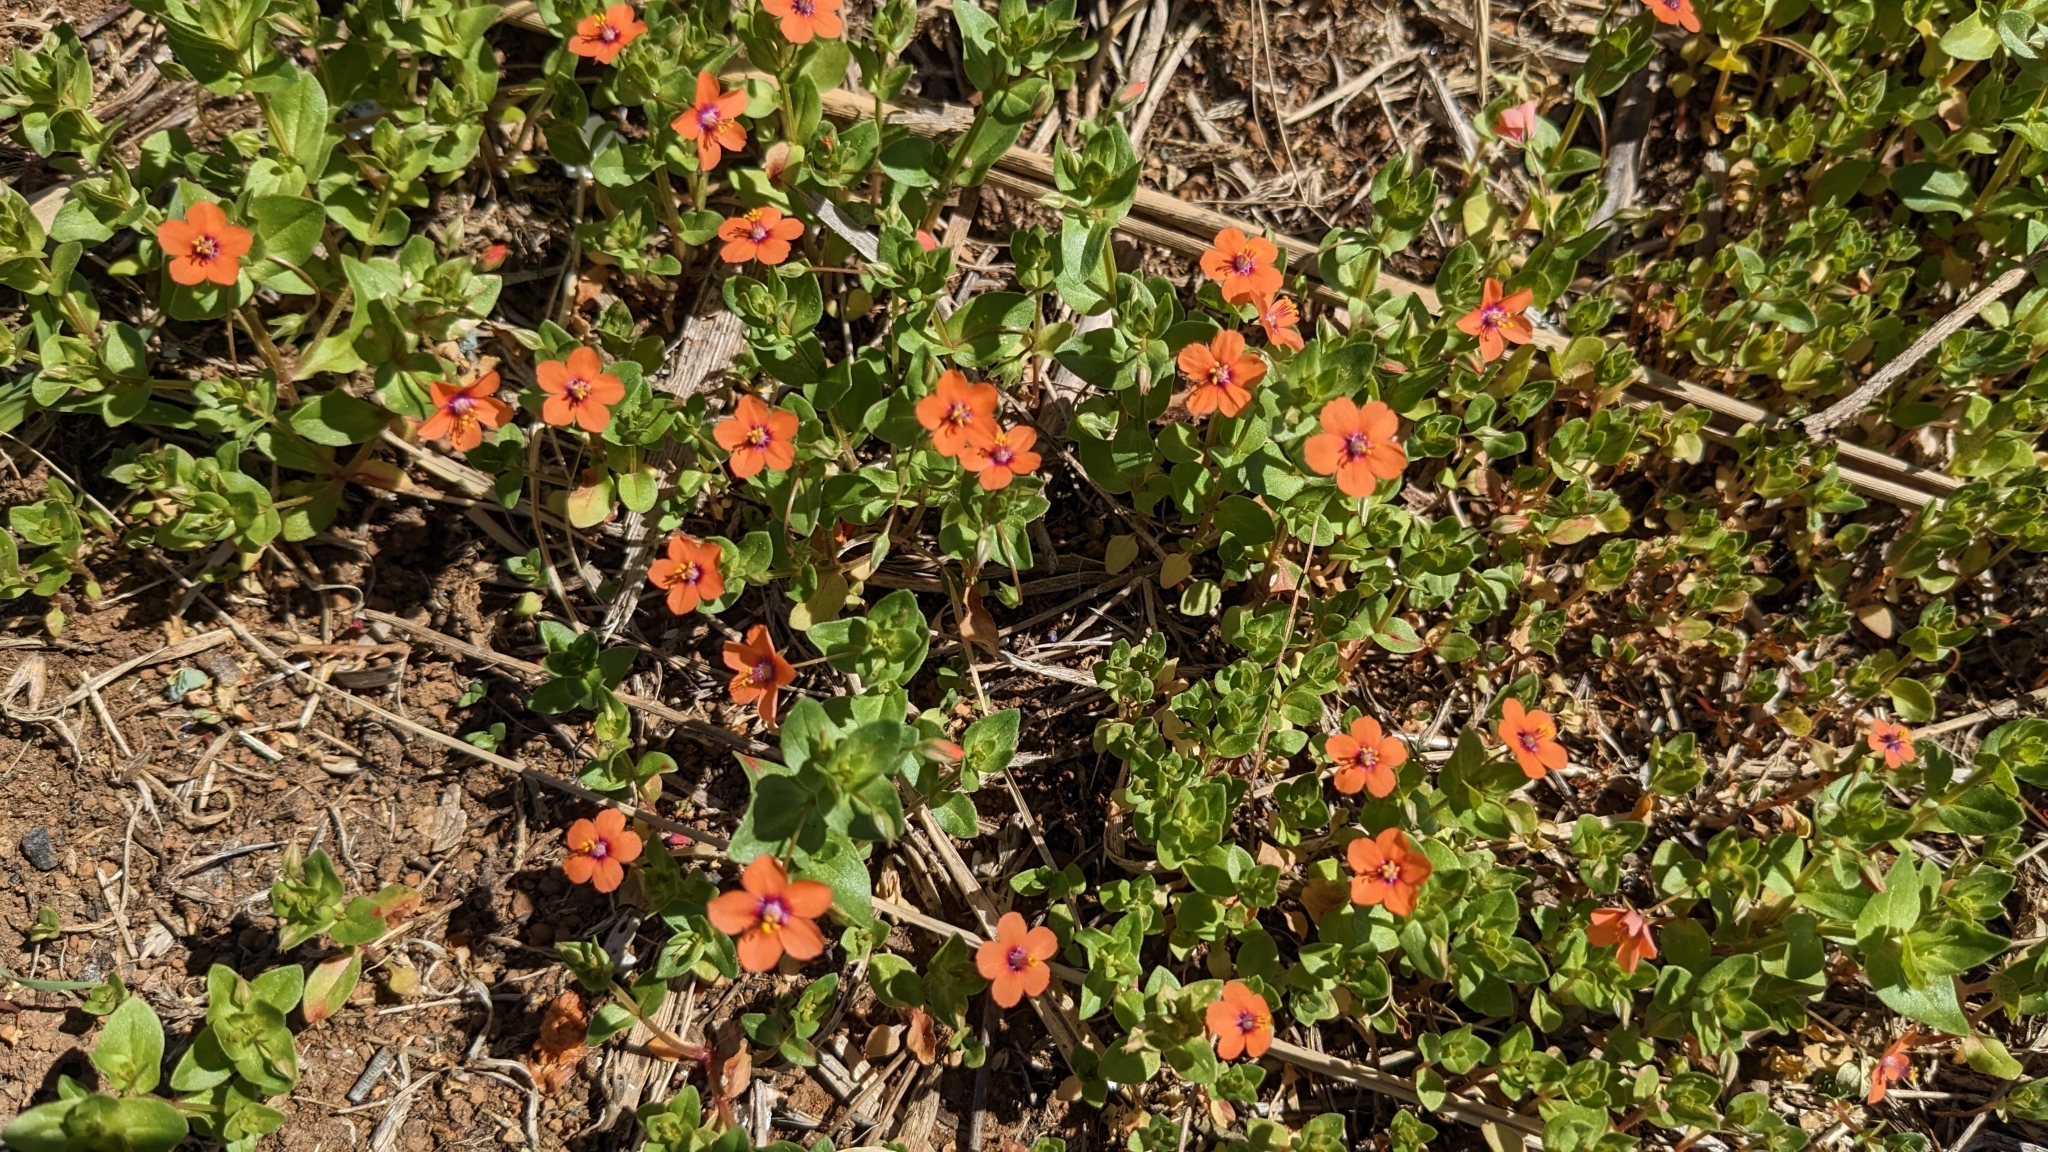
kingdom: Plantae
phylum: Tracheophyta
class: Magnoliopsida
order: Ericales
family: Primulaceae
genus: Lysimachia
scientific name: Lysimachia arvensis
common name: Scarlet pimpernel
